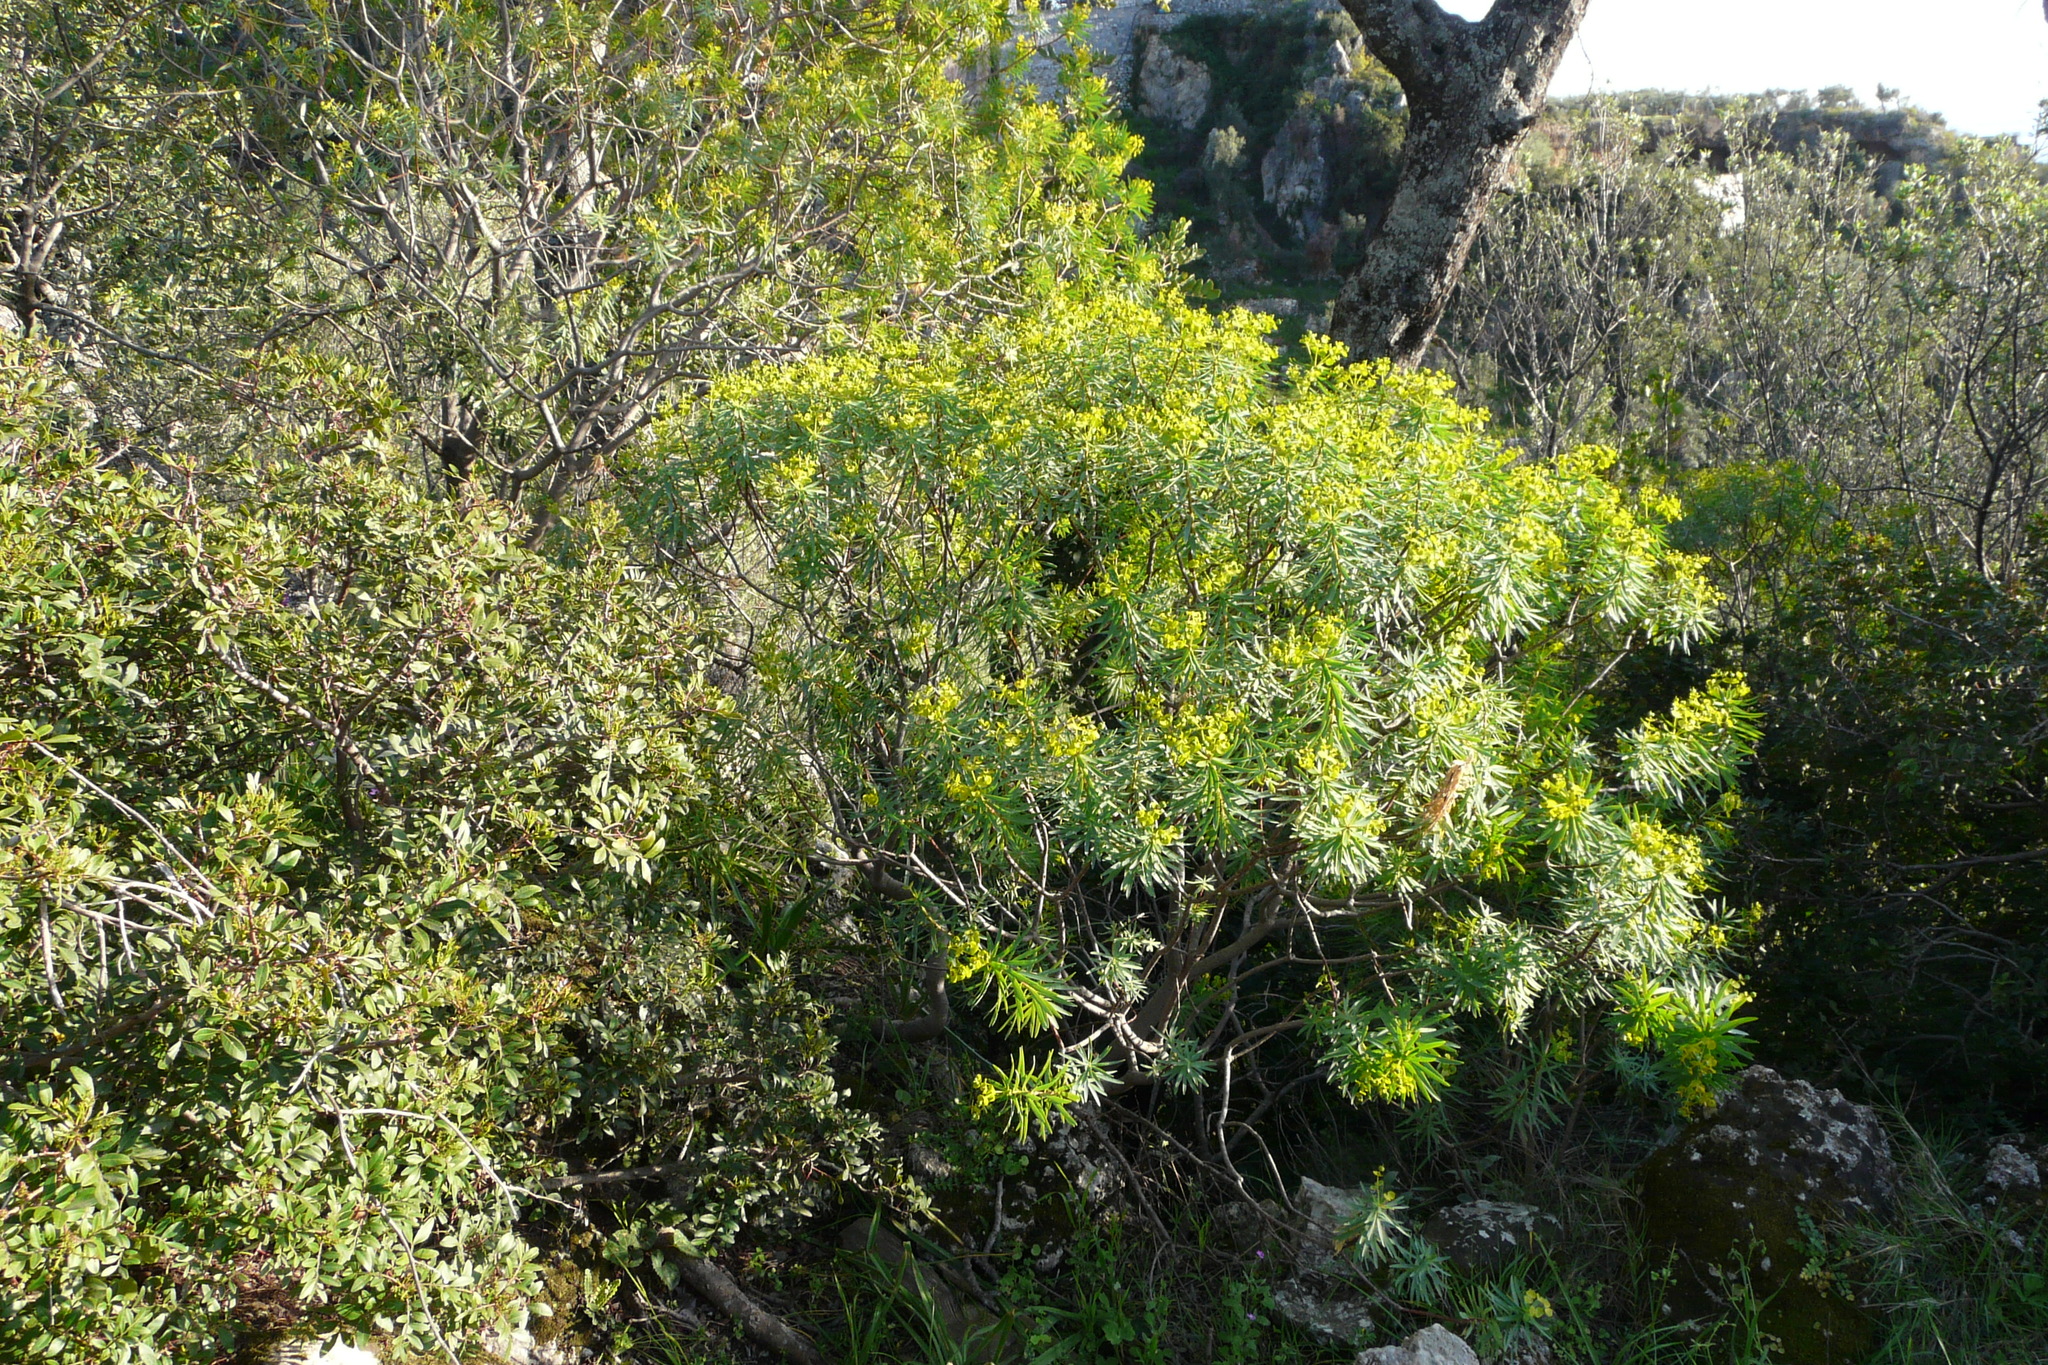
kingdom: Plantae
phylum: Tracheophyta
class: Magnoliopsida
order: Malpighiales
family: Euphorbiaceae
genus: Euphorbia
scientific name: Euphorbia dendroides
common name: Tree spurge
